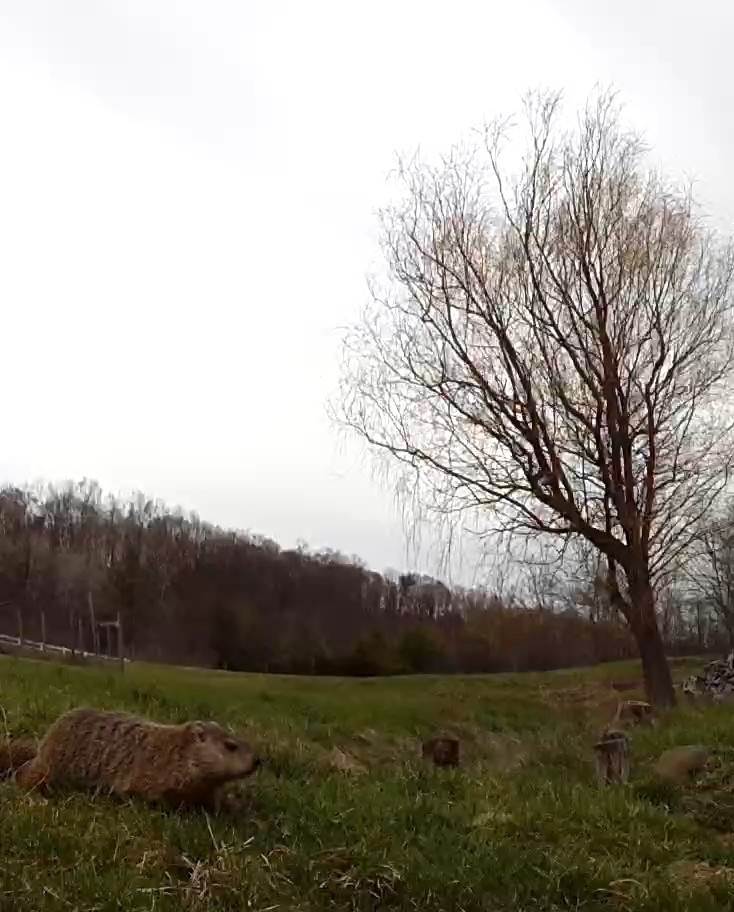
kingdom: Animalia
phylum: Chordata
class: Mammalia
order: Rodentia
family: Sciuridae
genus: Marmota
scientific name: Marmota monax
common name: Groundhog
